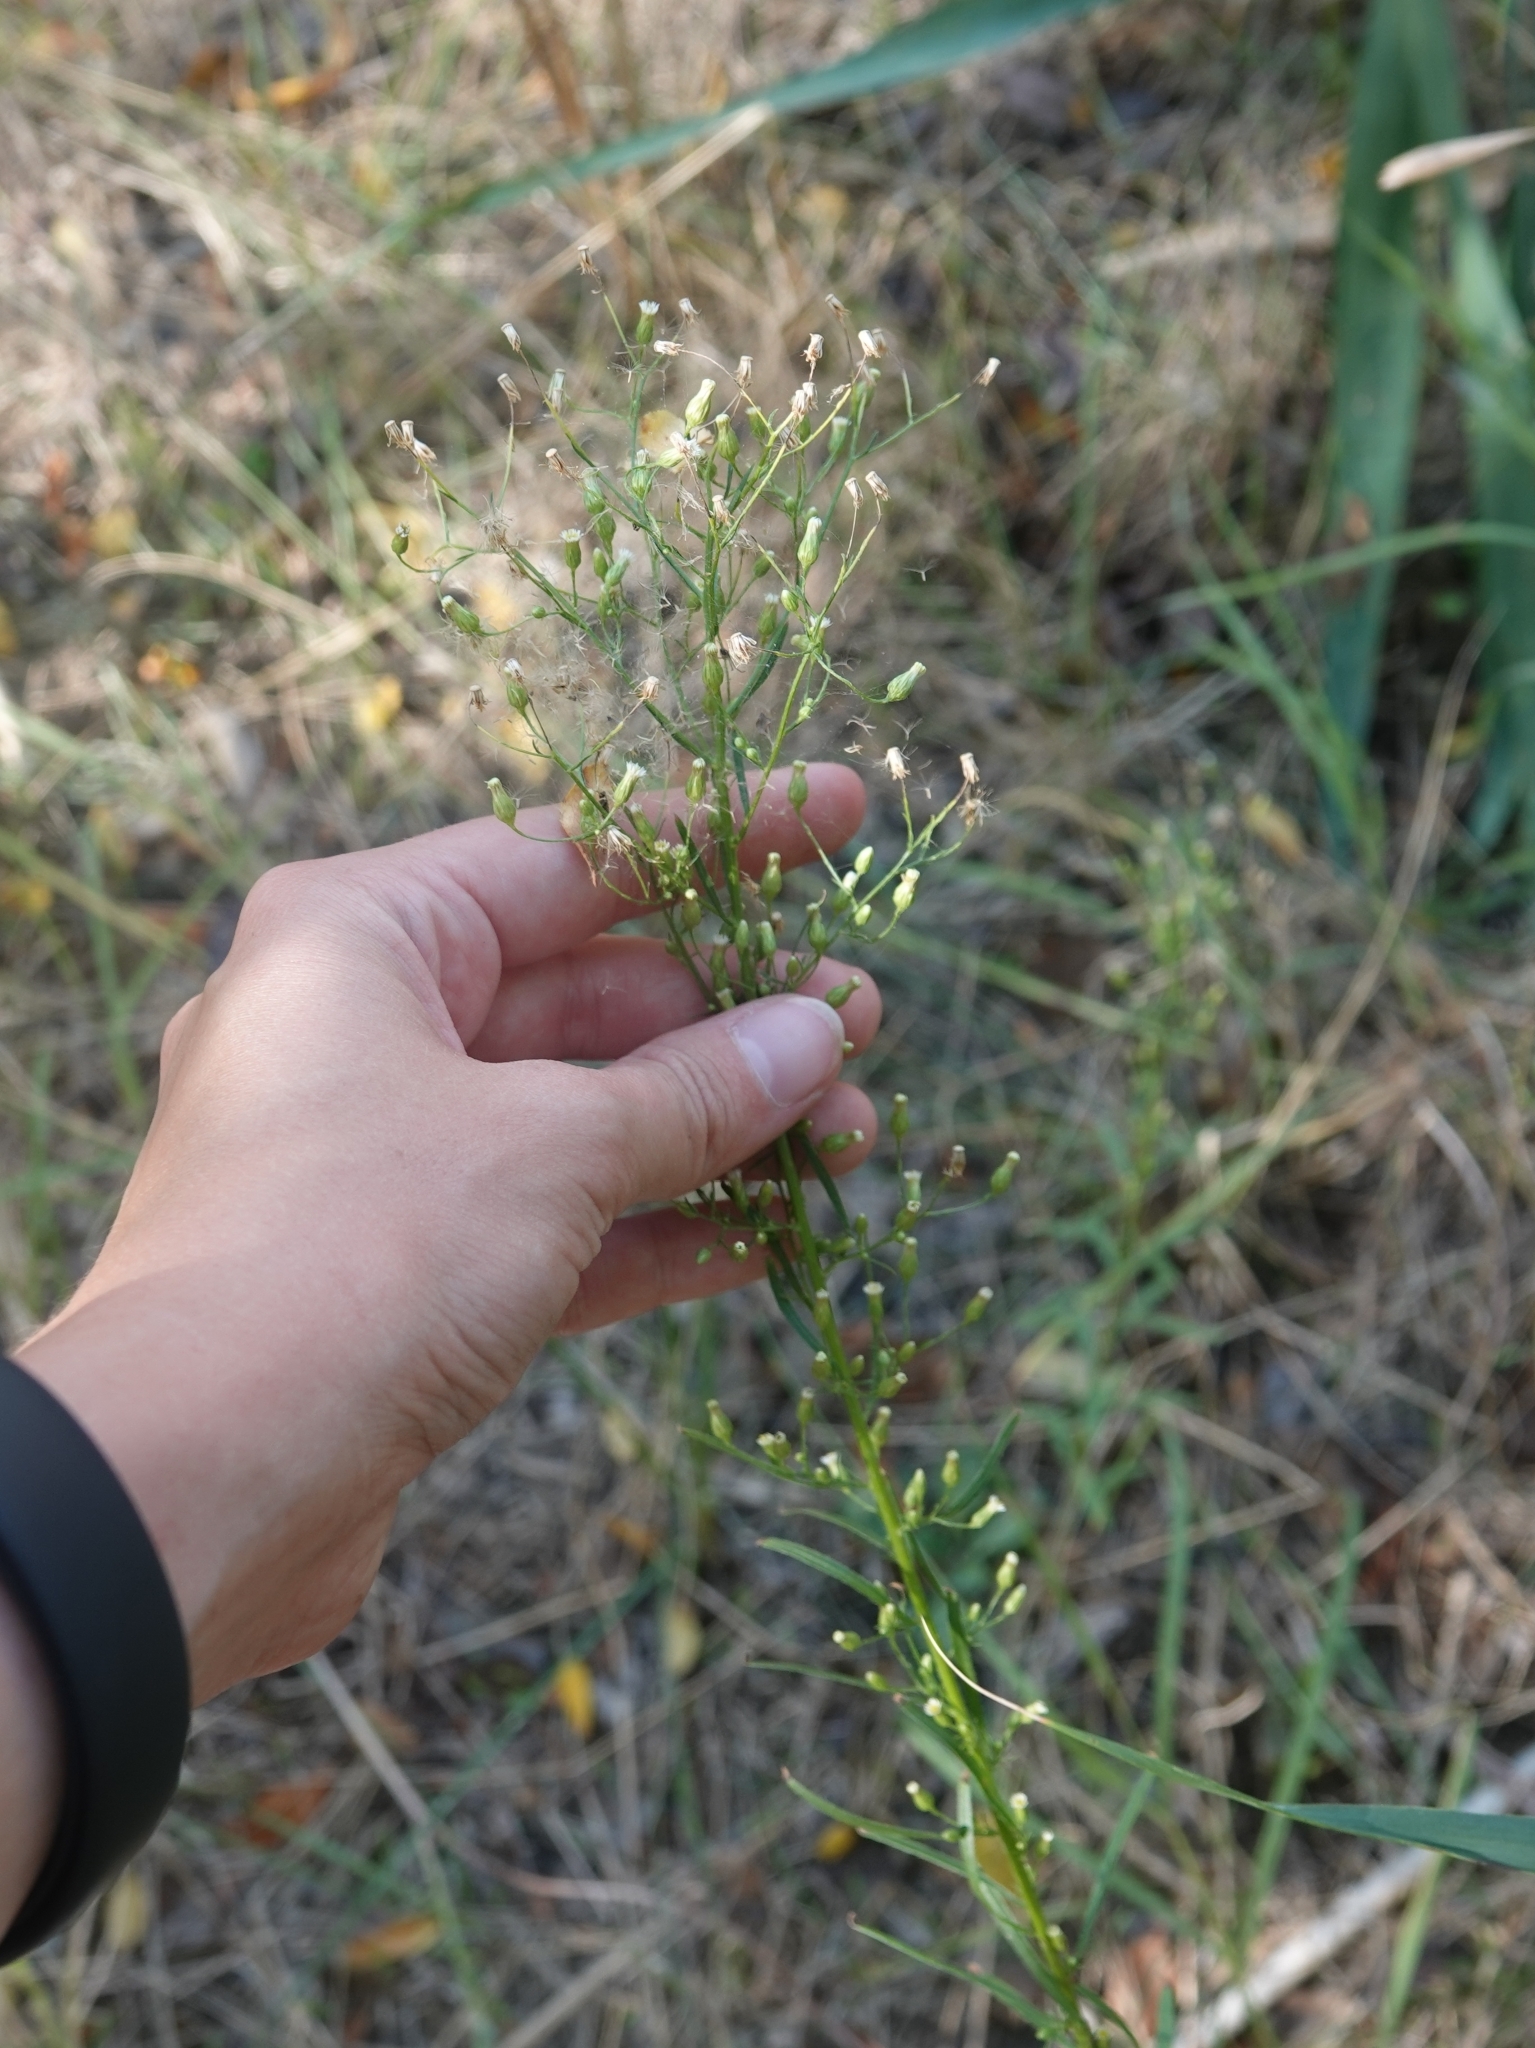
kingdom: Plantae
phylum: Tracheophyta
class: Magnoliopsida
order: Asterales
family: Asteraceae
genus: Erigeron
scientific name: Erigeron canadensis
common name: Canadian fleabane
